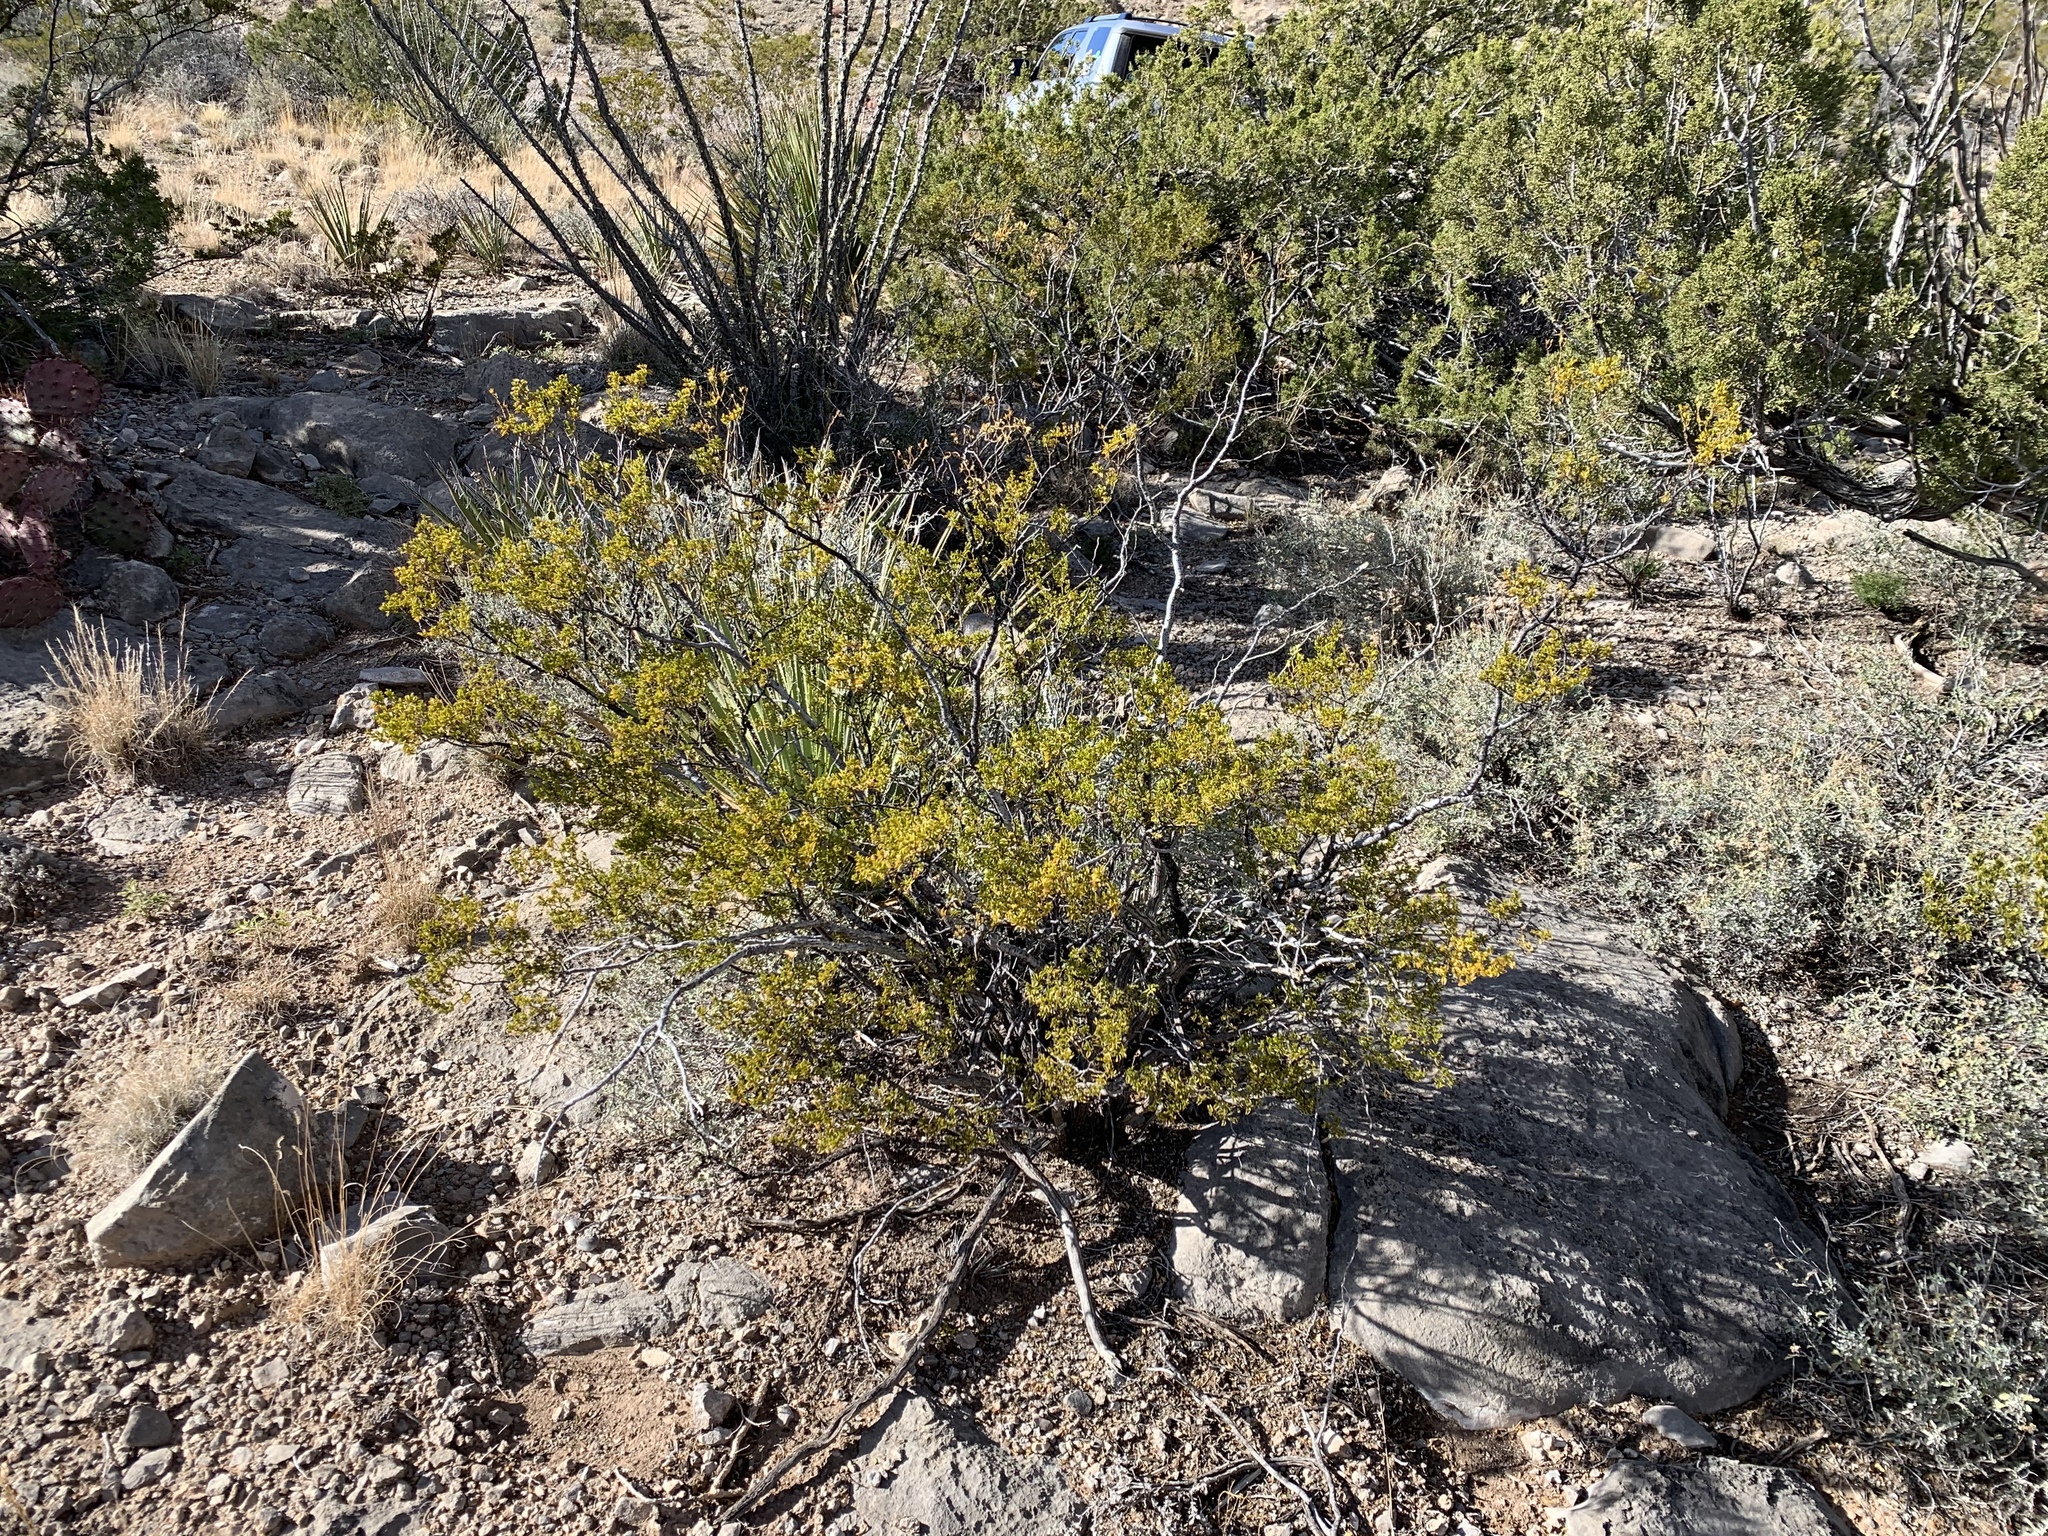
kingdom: Plantae
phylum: Tracheophyta
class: Magnoliopsida
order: Zygophyllales
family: Zygophyllaceae
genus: Larrea
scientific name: Larrea tridentata
